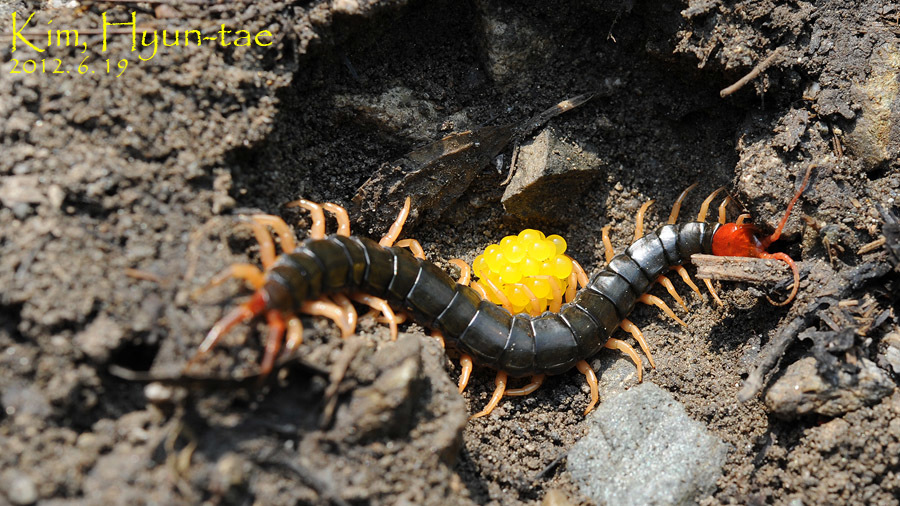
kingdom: Animalia
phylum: Arthropoda
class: Chilopoda
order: Scolopendromorpha
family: Scolopendridae
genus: Scolopendra
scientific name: Scolopendra mutilans
